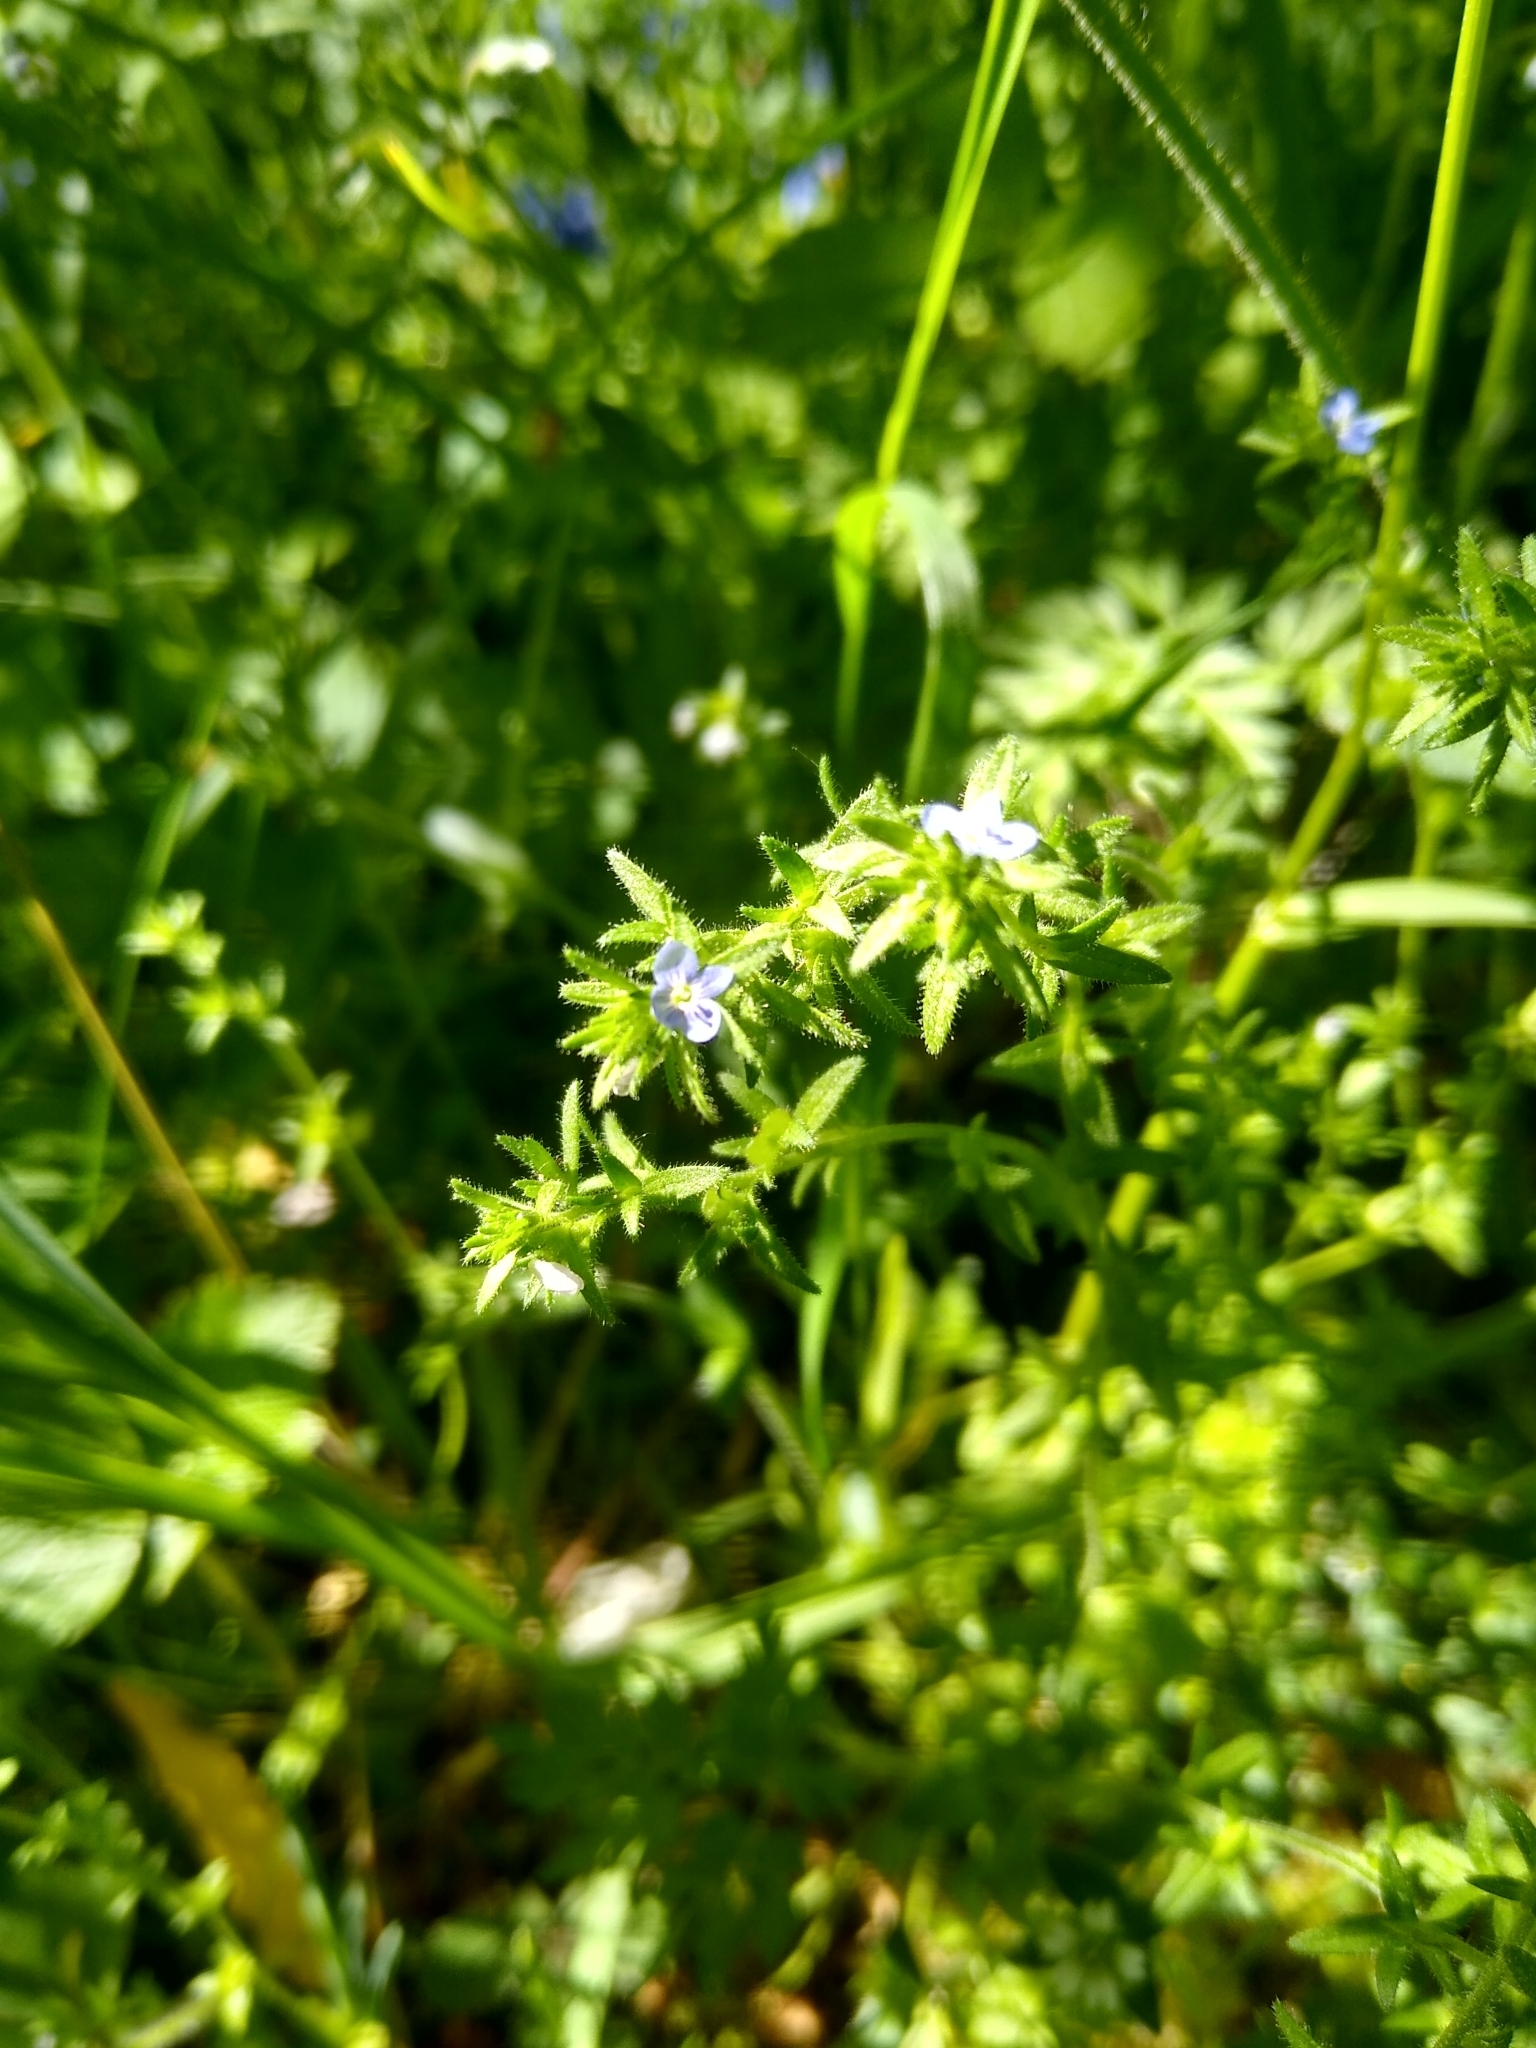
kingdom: Plantae
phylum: Tracheophyta
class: Magnoliopsida
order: Lamiales
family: Plantaginaceae
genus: Veronica
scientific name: Veronica arvensis
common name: Corn speedwell
